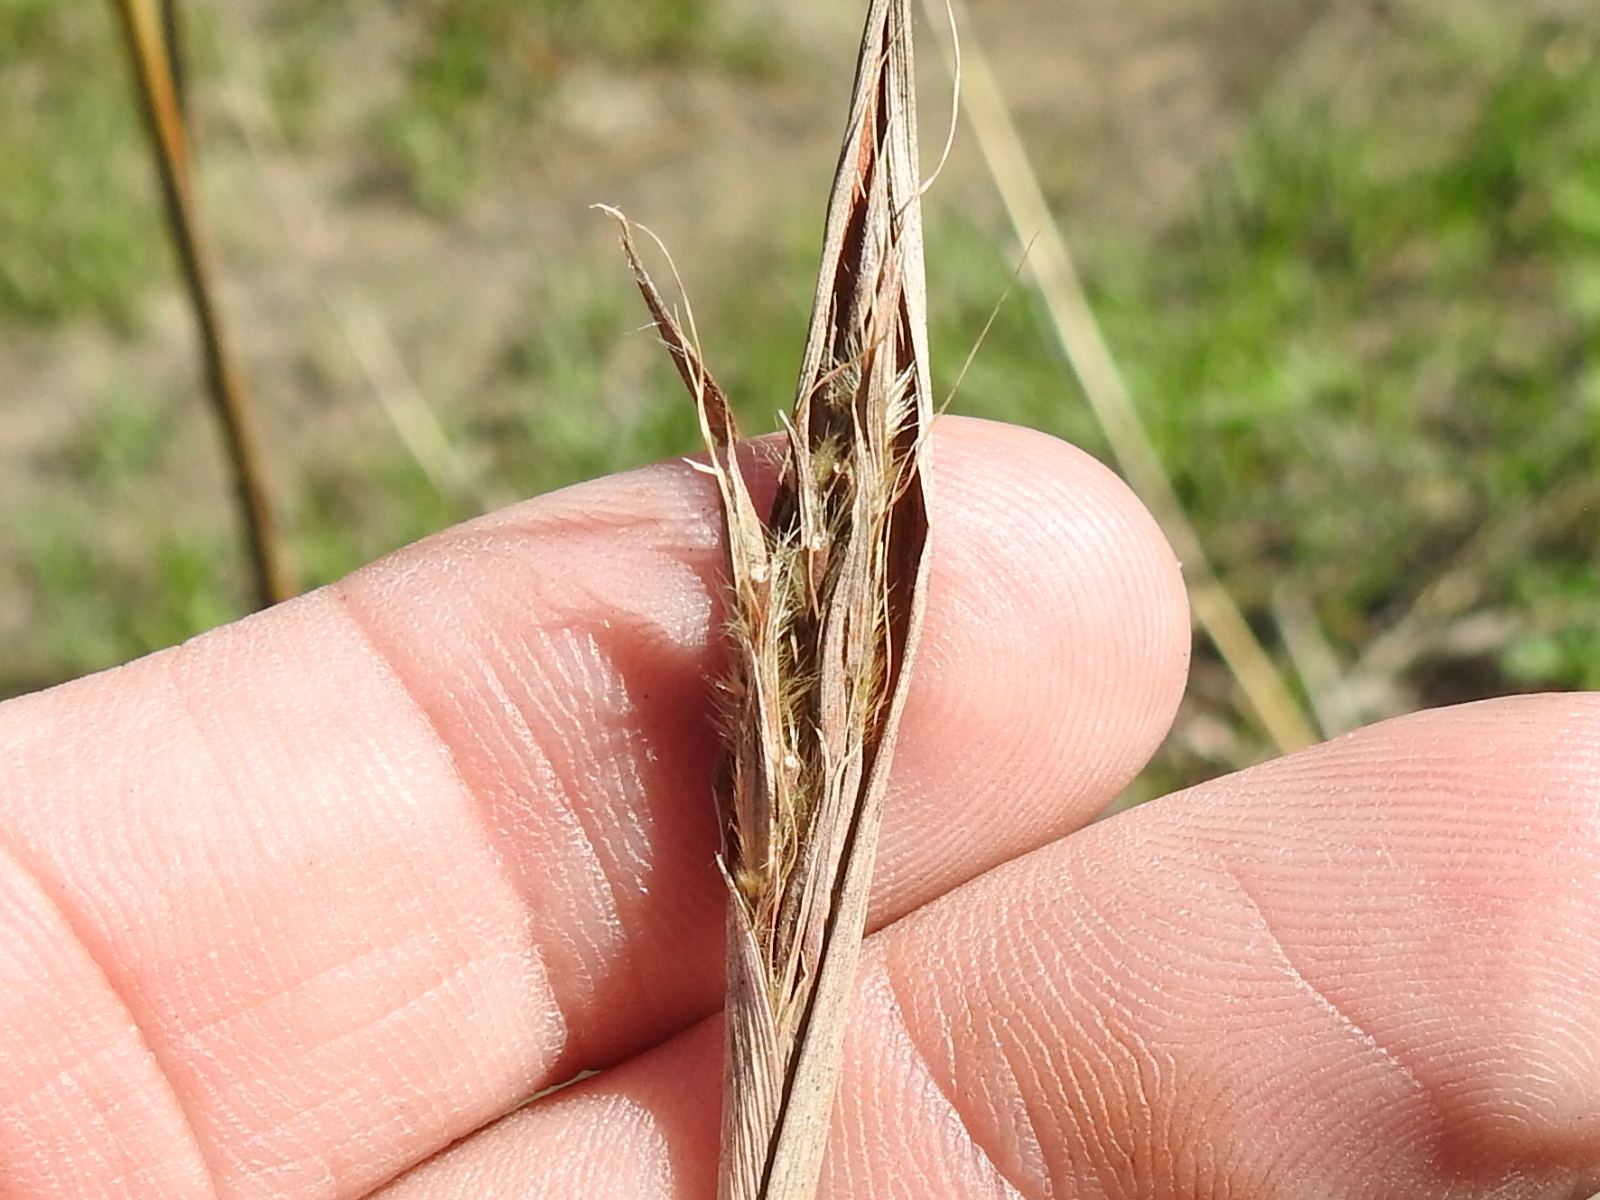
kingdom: Plantae
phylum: Tracheophyta
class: Liliopsida
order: Poales
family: Poaceae
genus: Andropogon
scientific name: Andropogon gerardi
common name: Big bluestem
